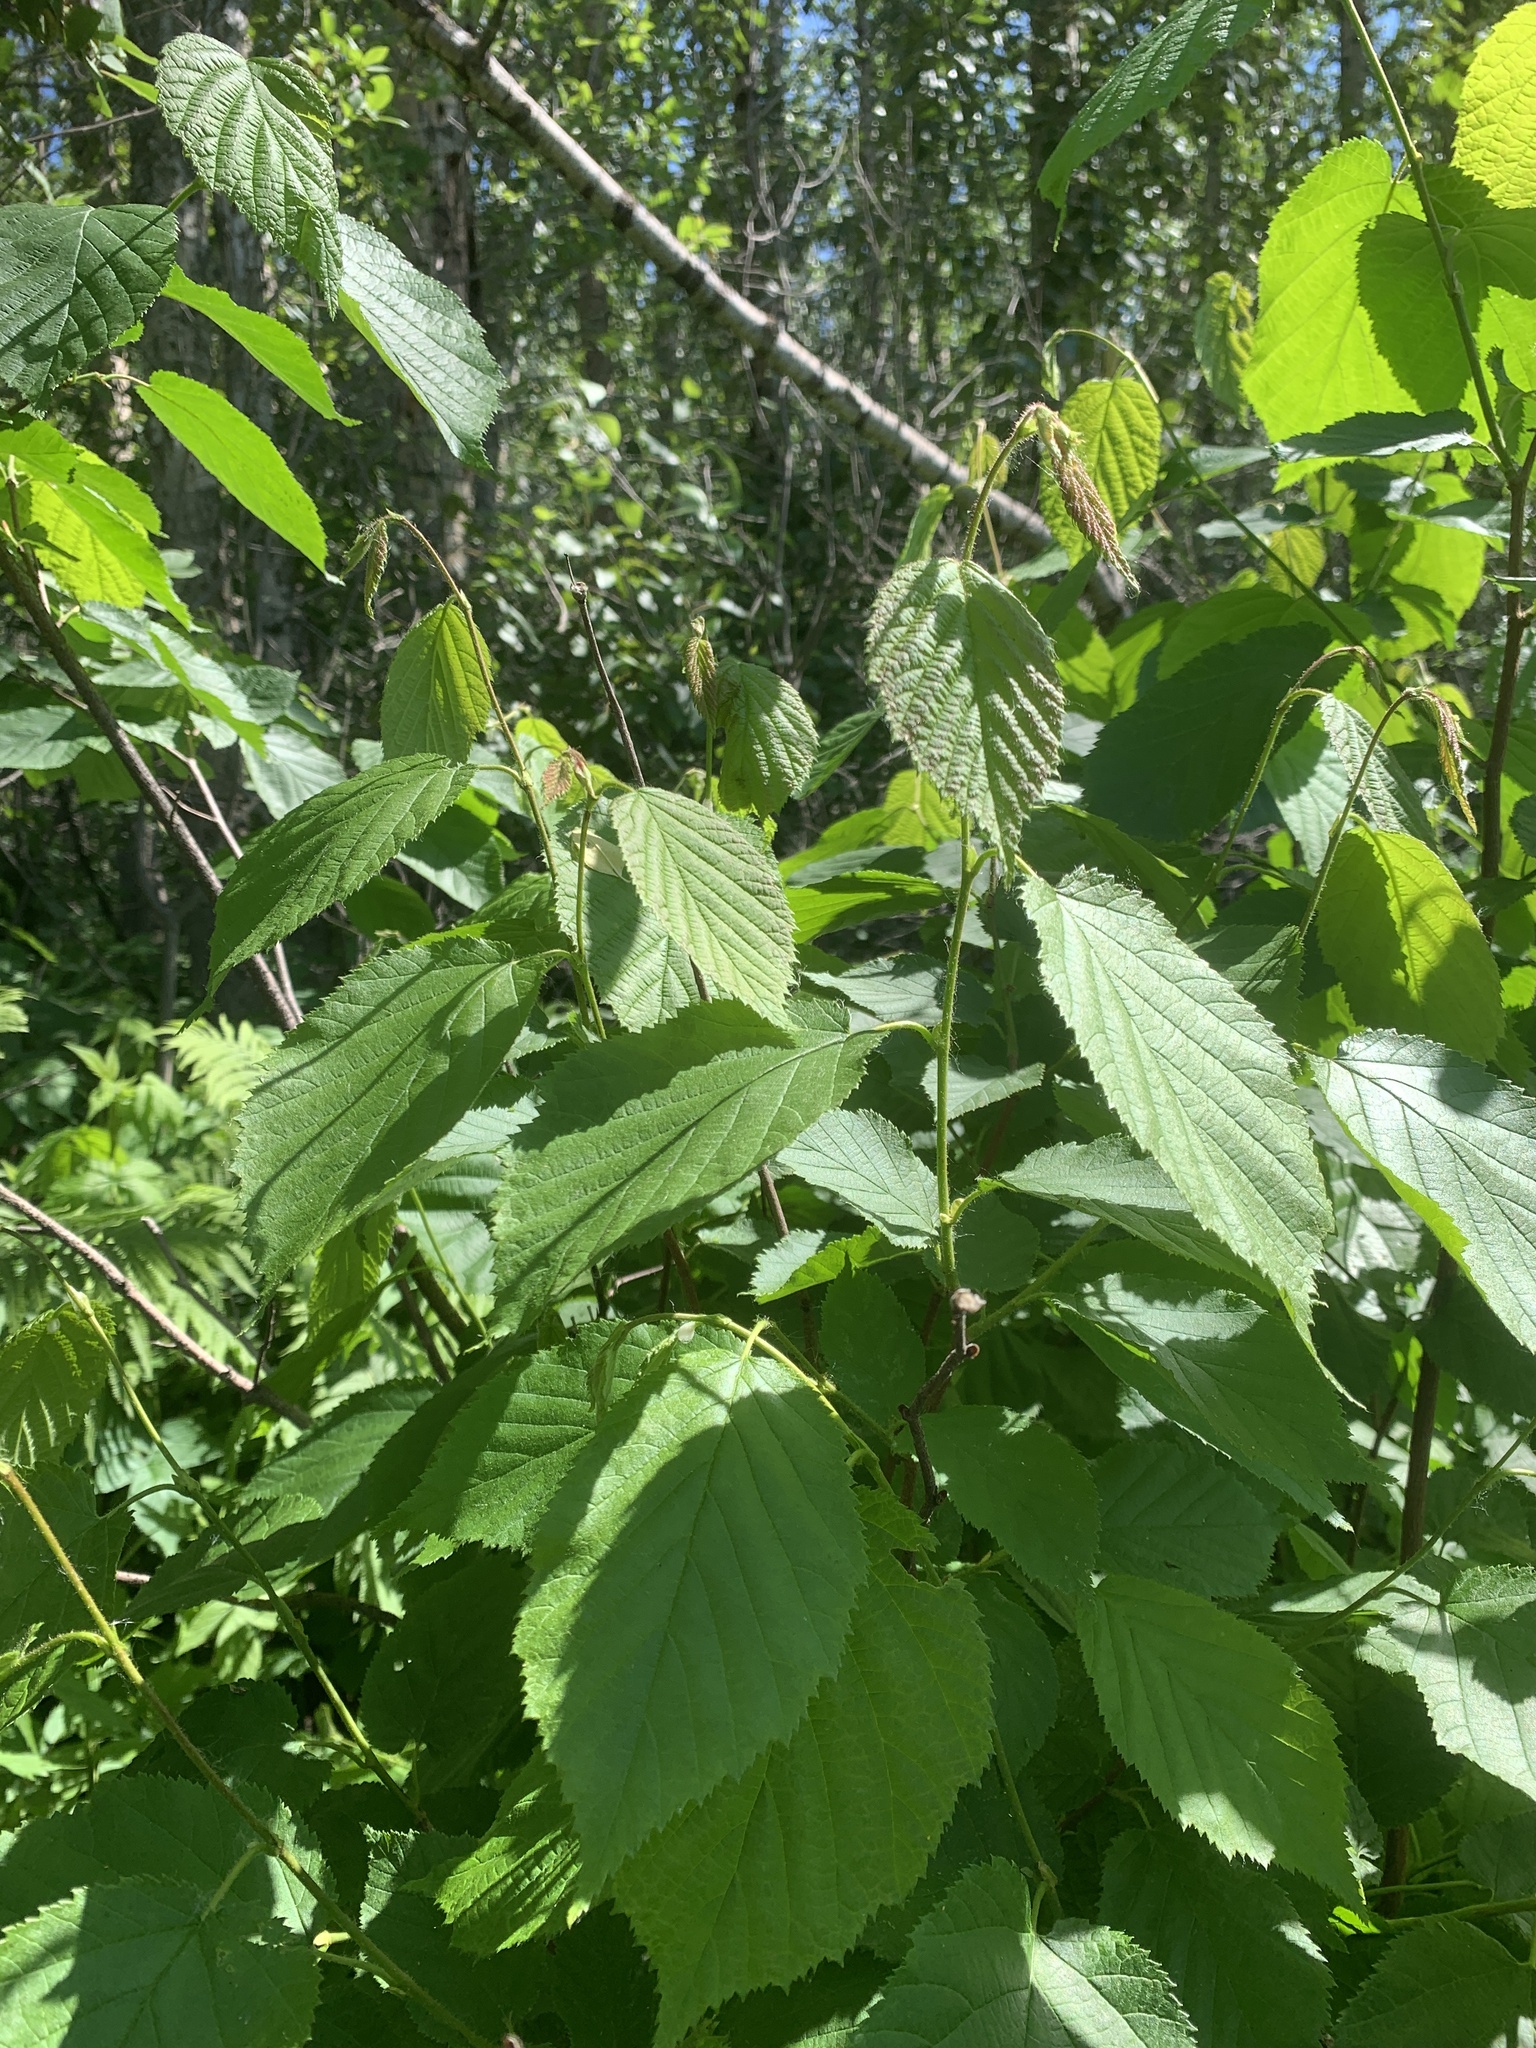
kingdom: Plantae
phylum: Tracheophyta
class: Magnoliopsida
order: Fagales
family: Betulaceae
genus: Corylus
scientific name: Corylus cornuta
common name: Beaked hazel
